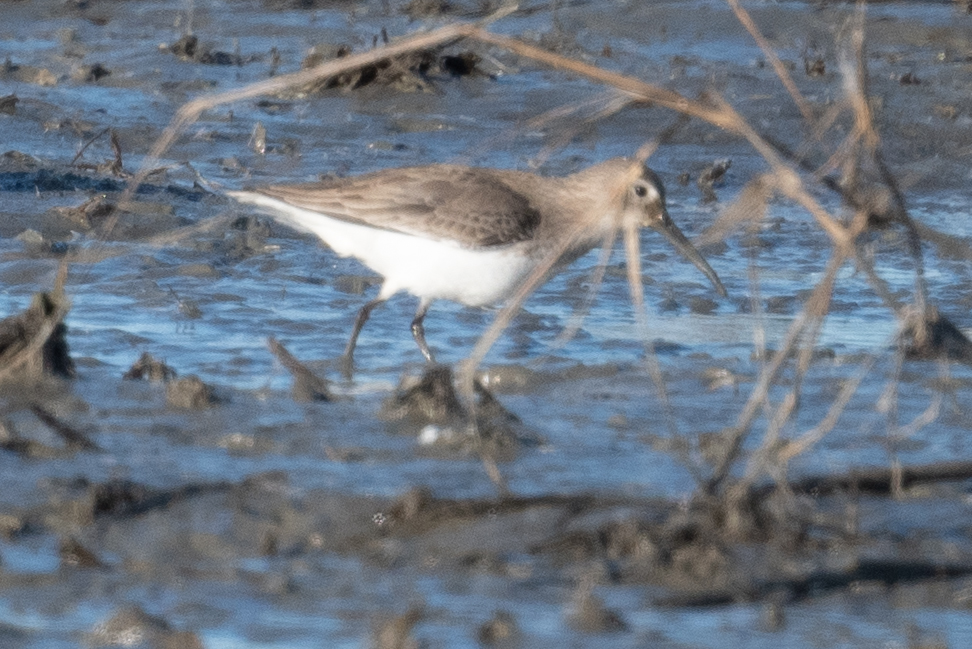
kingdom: Animalia
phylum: Chordata
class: Aves
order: Charadriiformes
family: Scolopacidae
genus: Calidris
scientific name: Calidris alpina
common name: Dunlin
